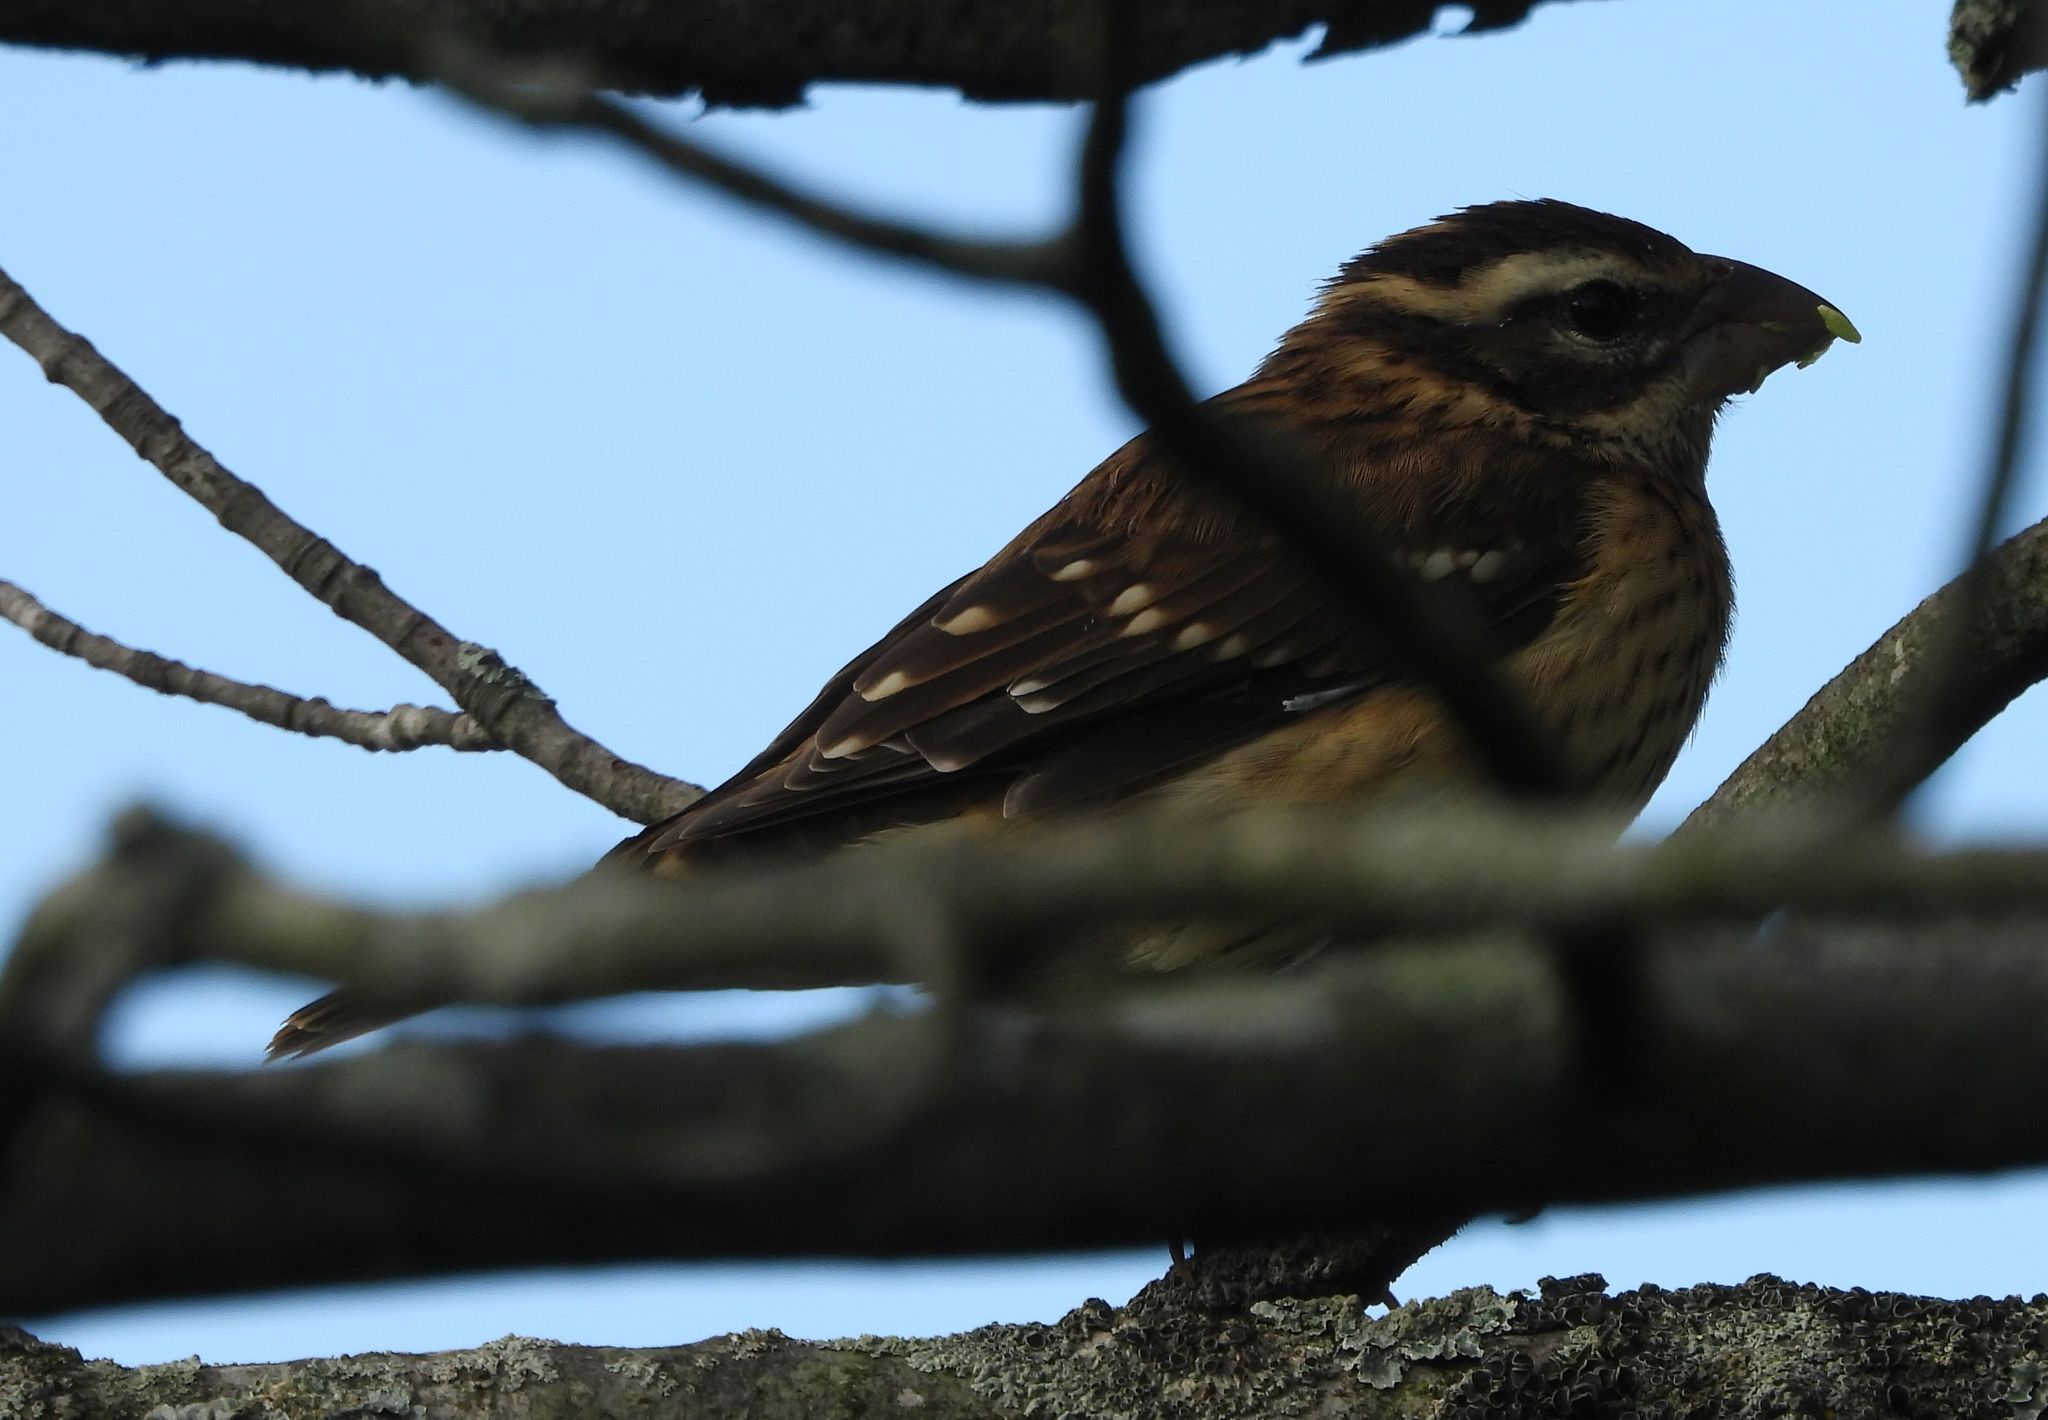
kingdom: Animalia
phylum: Chordata
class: Aves
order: Passeriformes
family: Cardinalidae
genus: Pheucticus
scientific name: Pheucticus ludovicianus
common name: Rose-breasted grosbeak
